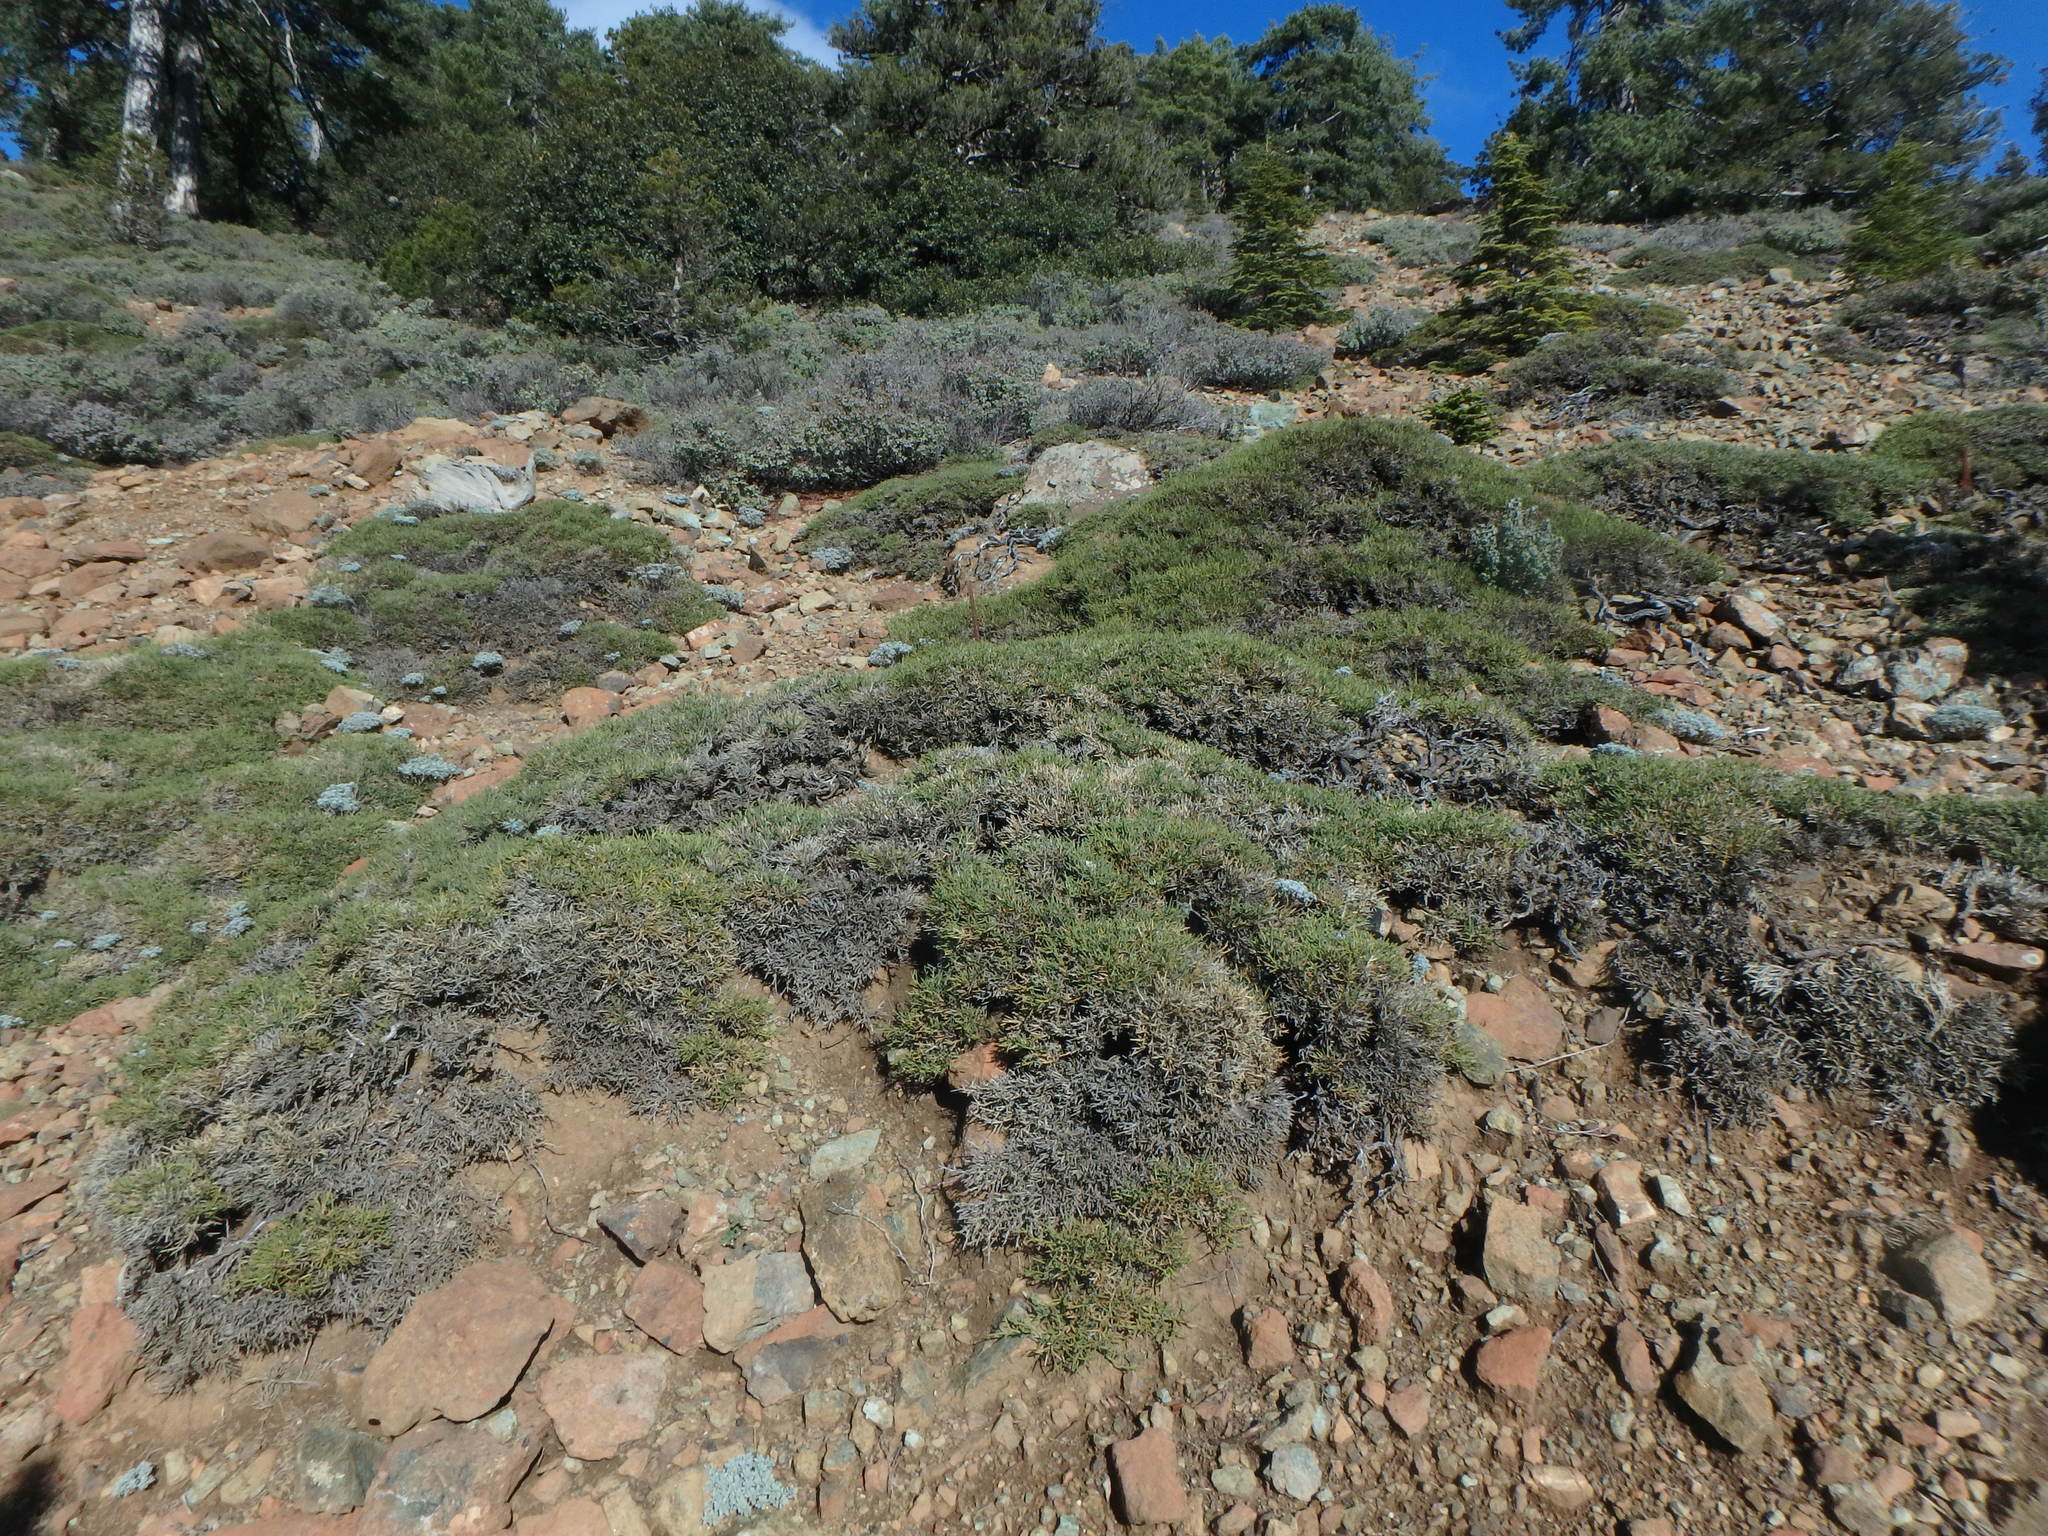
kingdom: Plantae
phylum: Tracheophyta
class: Magnoliopsida
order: Fabales
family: Fabaceae
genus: Genista
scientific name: Genista fasselata
